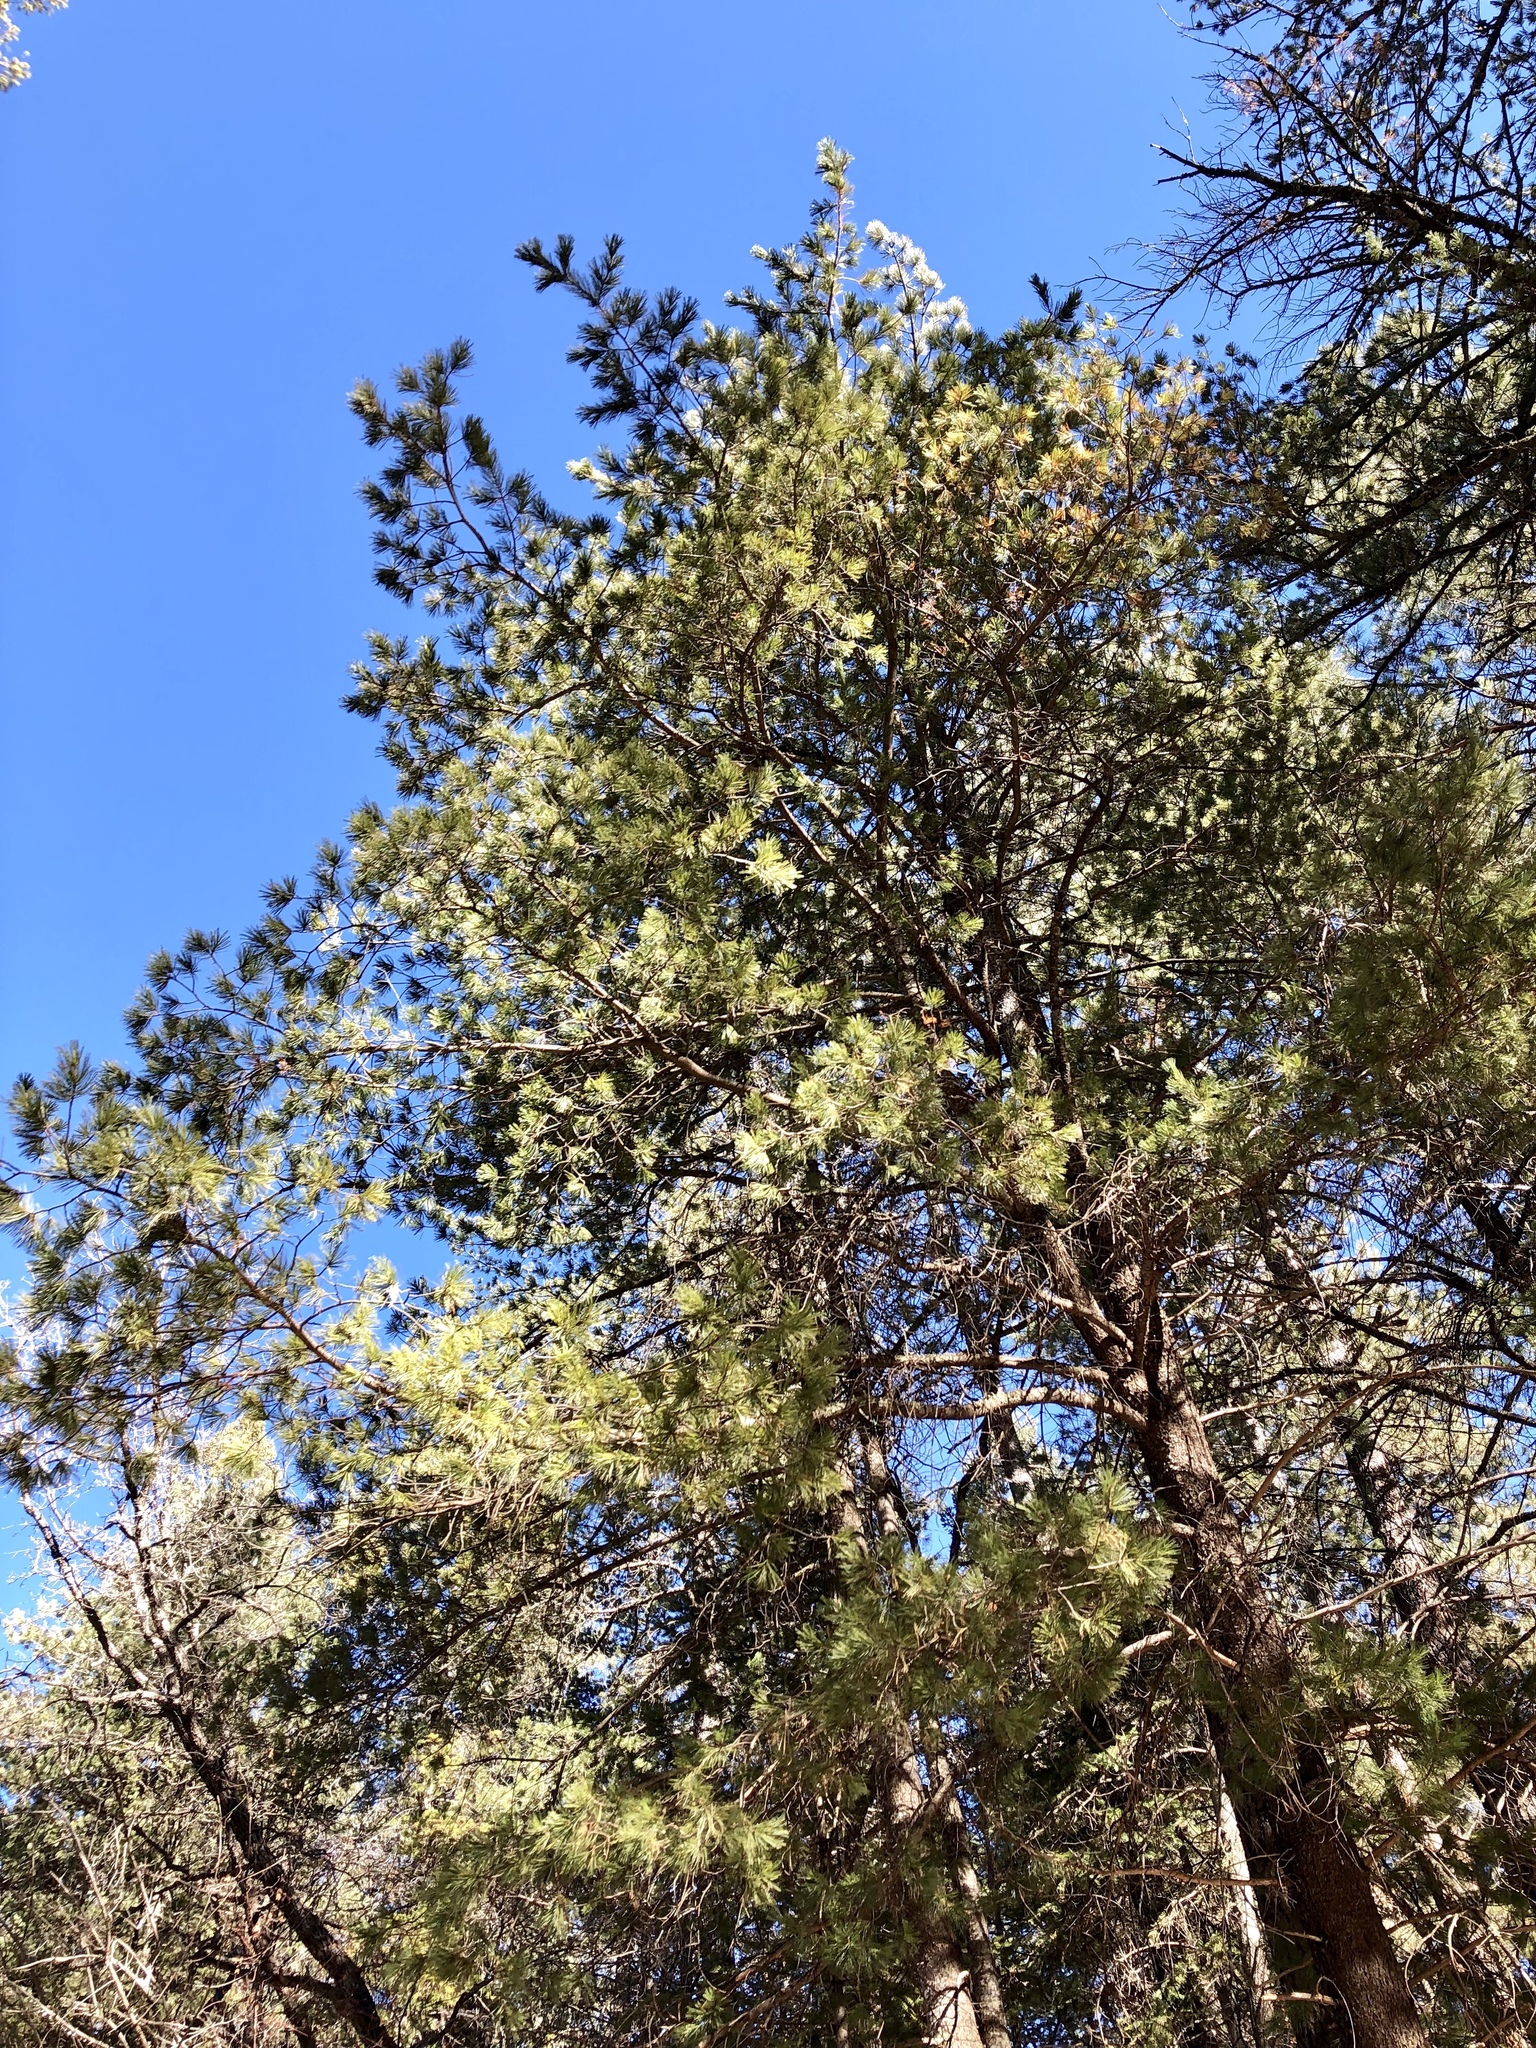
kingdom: Plantae
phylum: Tracheophyta
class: Pinopsida
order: Pinales
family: Pinaceae
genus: Pinus
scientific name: Pinus strobiformis
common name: Southwestern white pine
